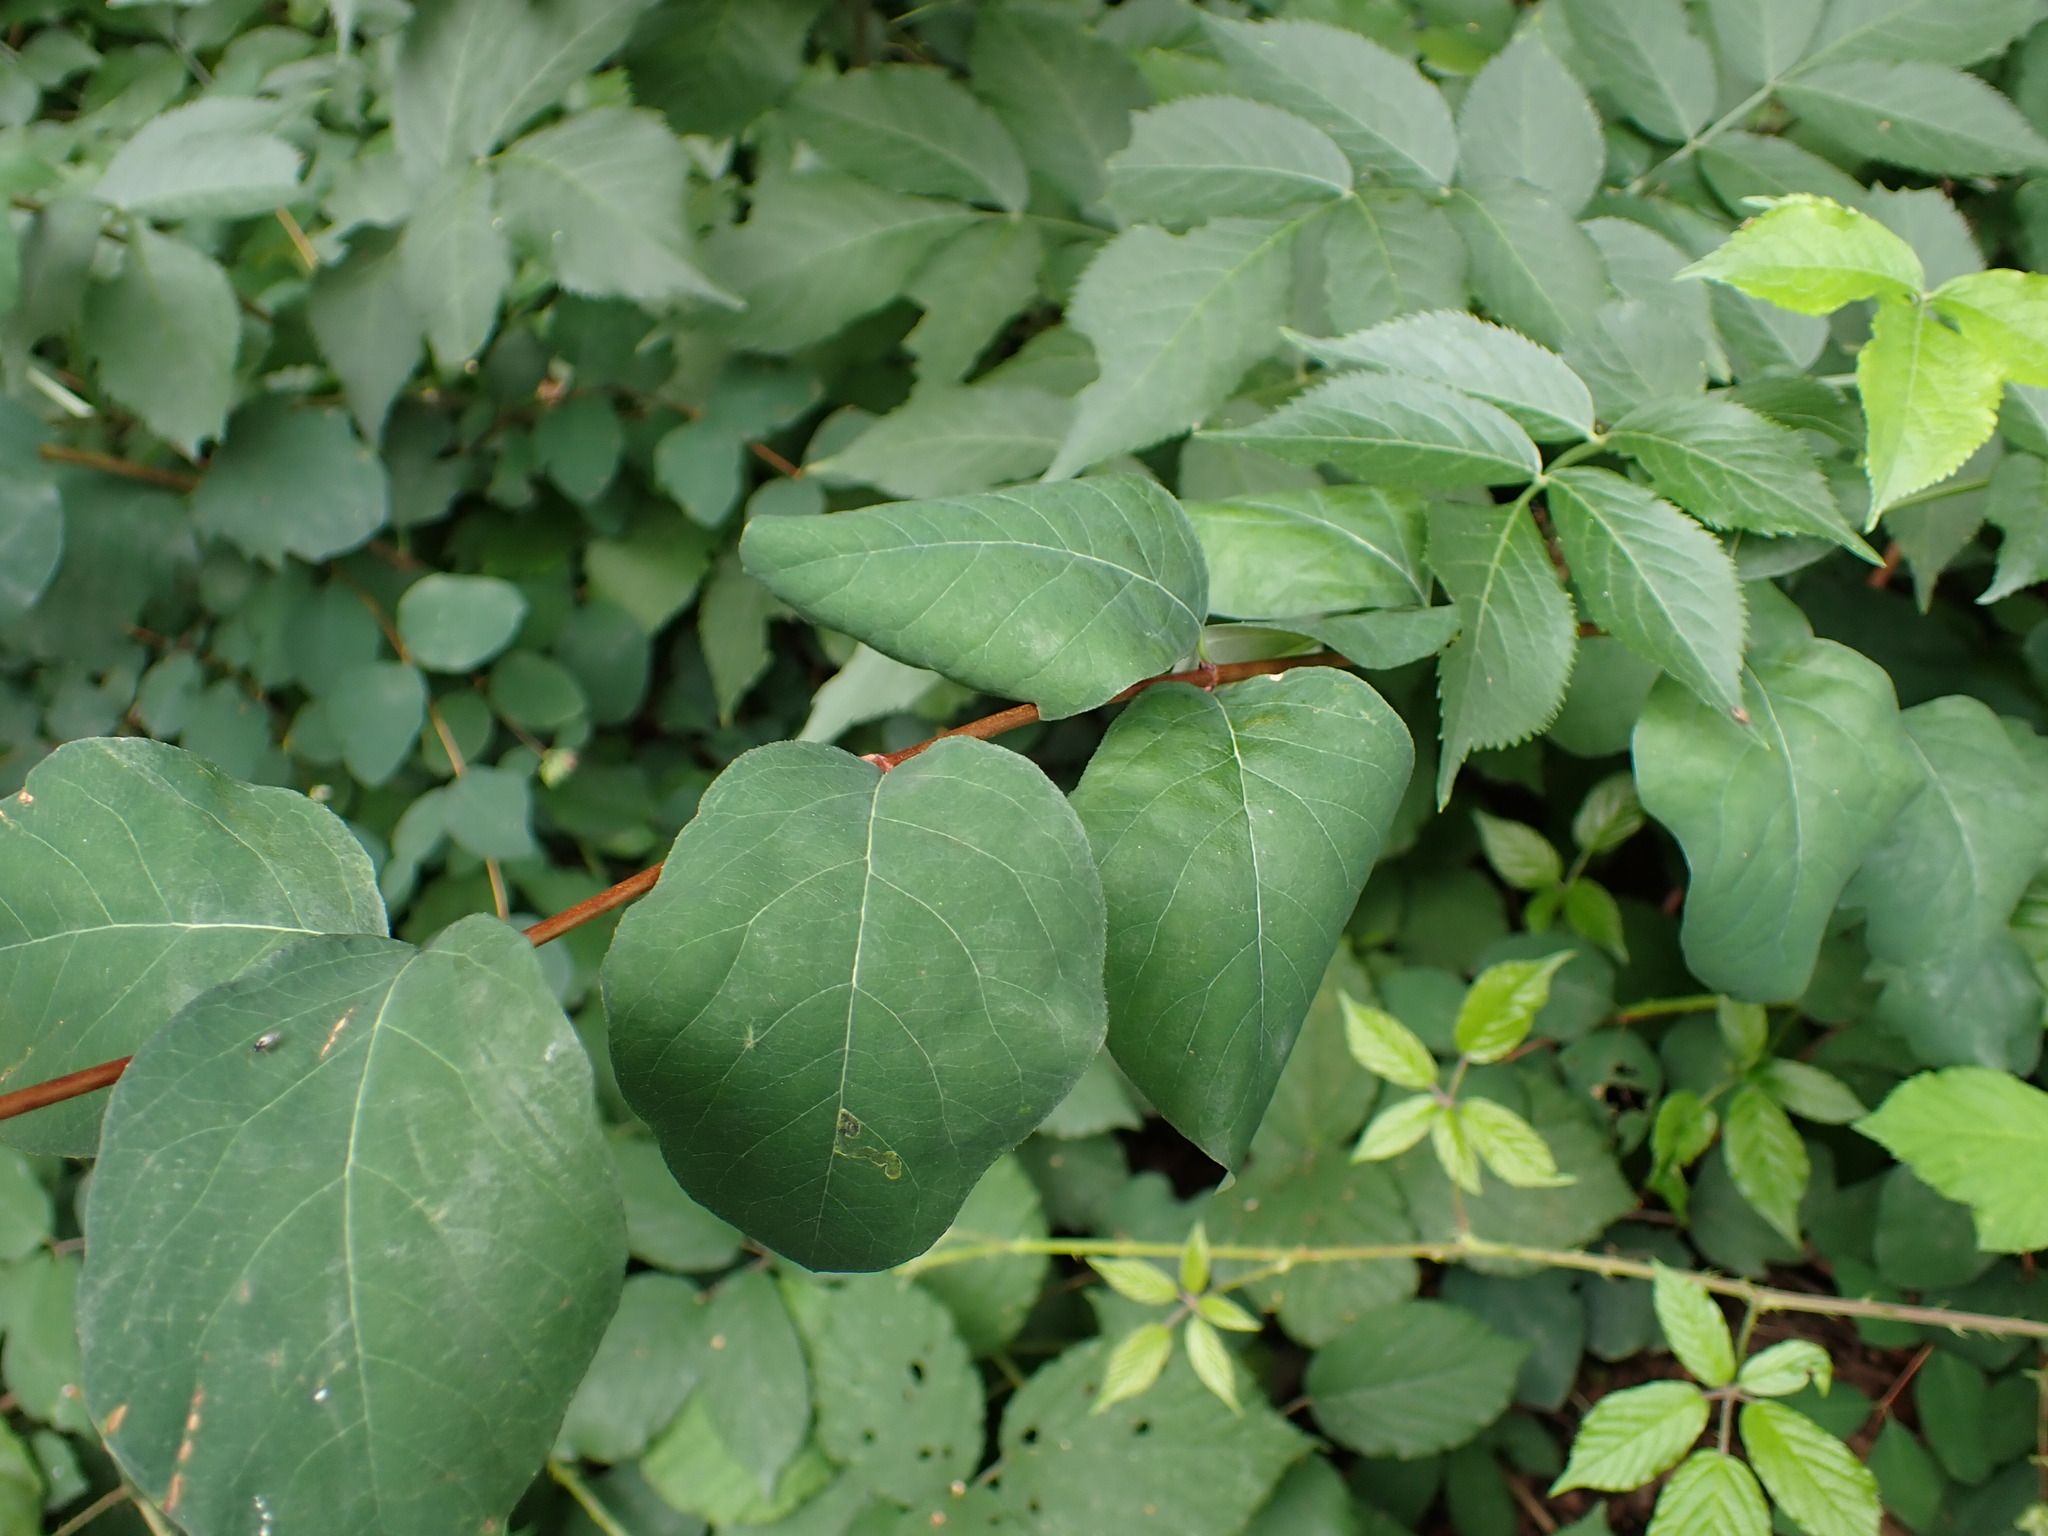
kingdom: Plantae
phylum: Tracheophyta
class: Magnoliopsida
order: Dipsacales
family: Caprifoliaceae
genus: Symphoricarpos
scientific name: Symphoricarpos albus
